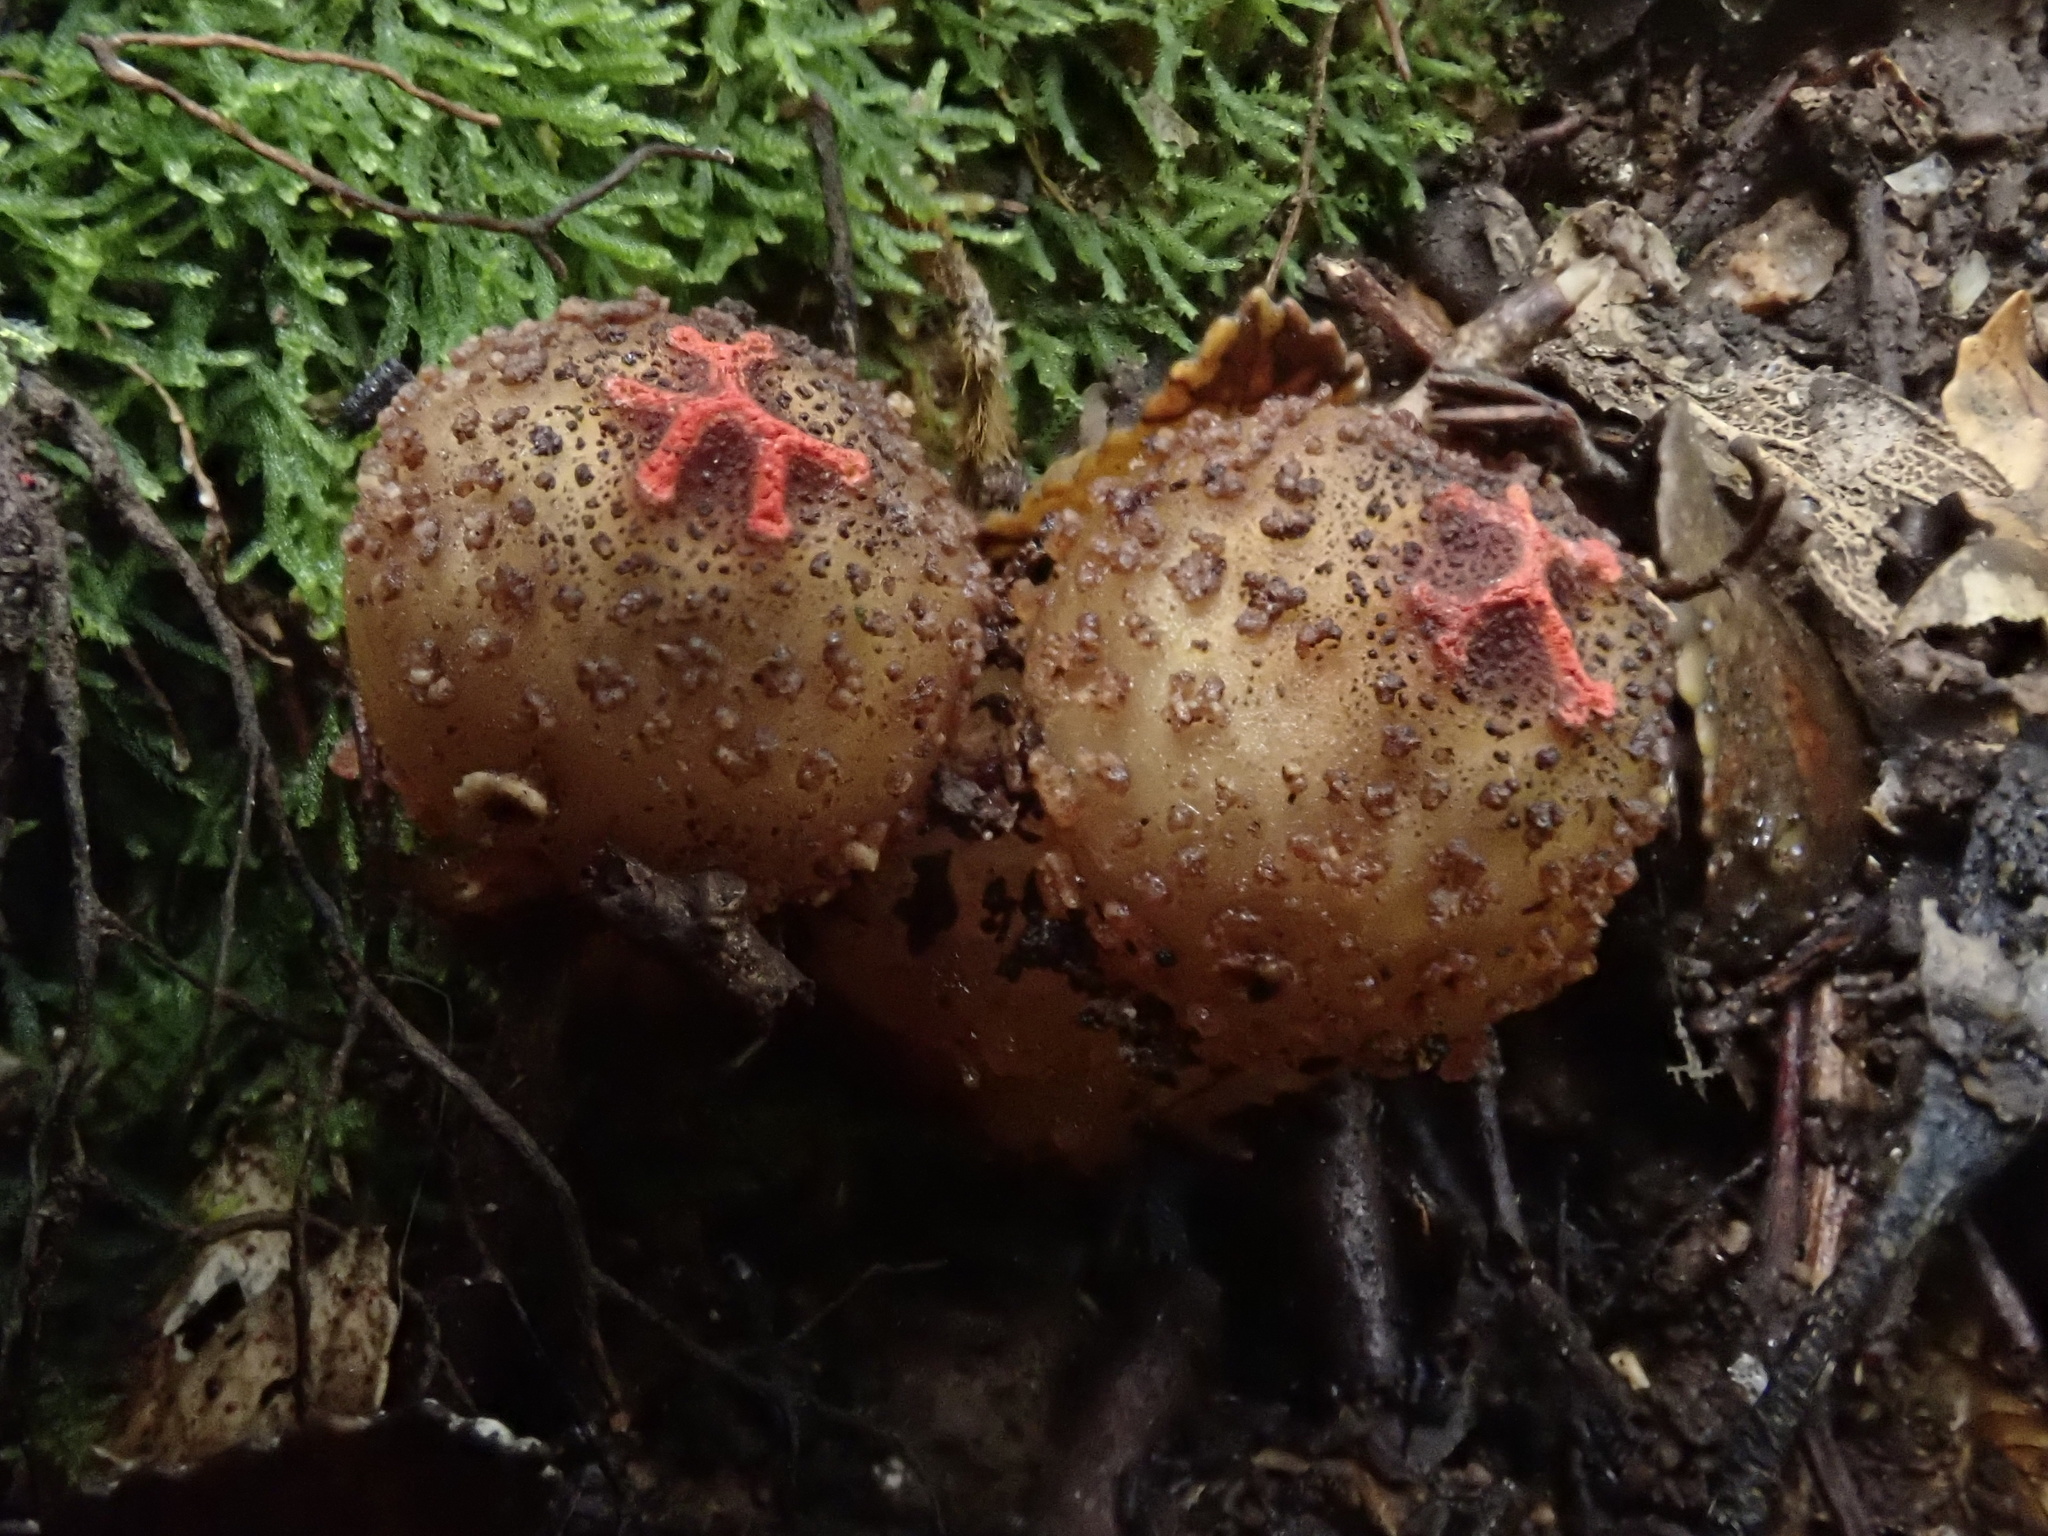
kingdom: Fungi
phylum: Basidiomycota
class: Agaricomycetes
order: Boletales
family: Calostomataceae
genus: Calostoma
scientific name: Calostoma rodwayi
